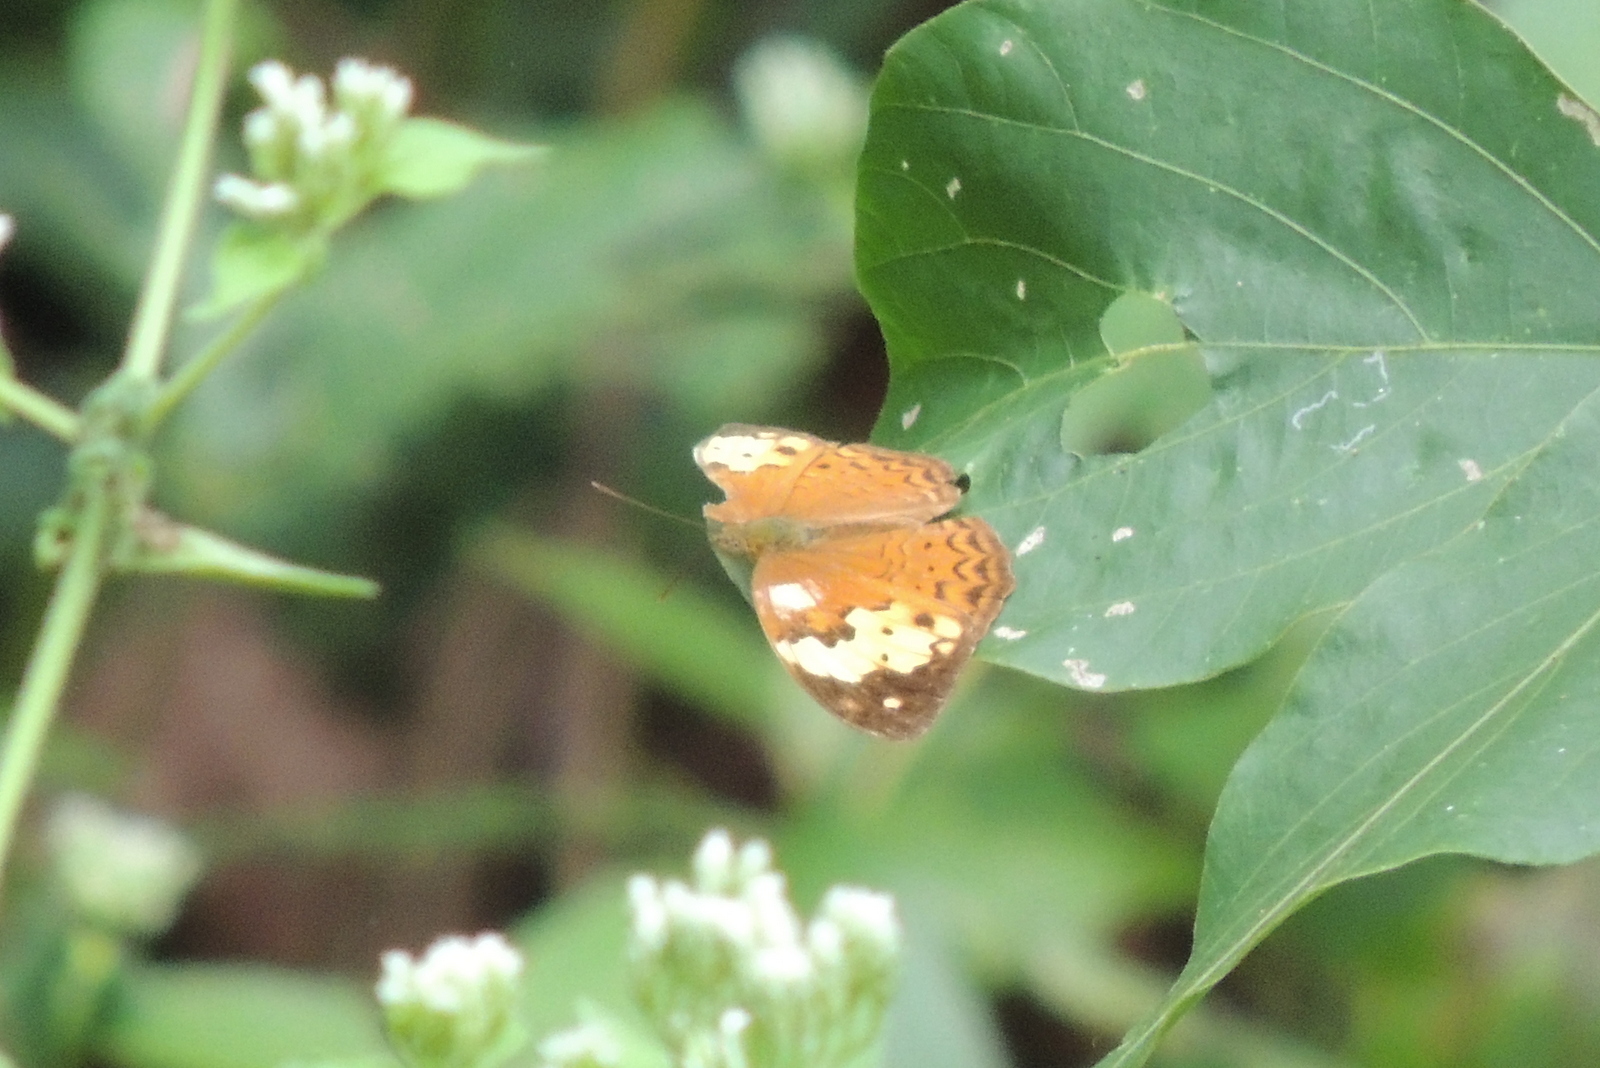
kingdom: Animalia
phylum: Arthropoda
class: Insecta
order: Lepidoptera
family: Nymphalidae
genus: Cupha
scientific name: Cupha erymanthis
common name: Rustic
